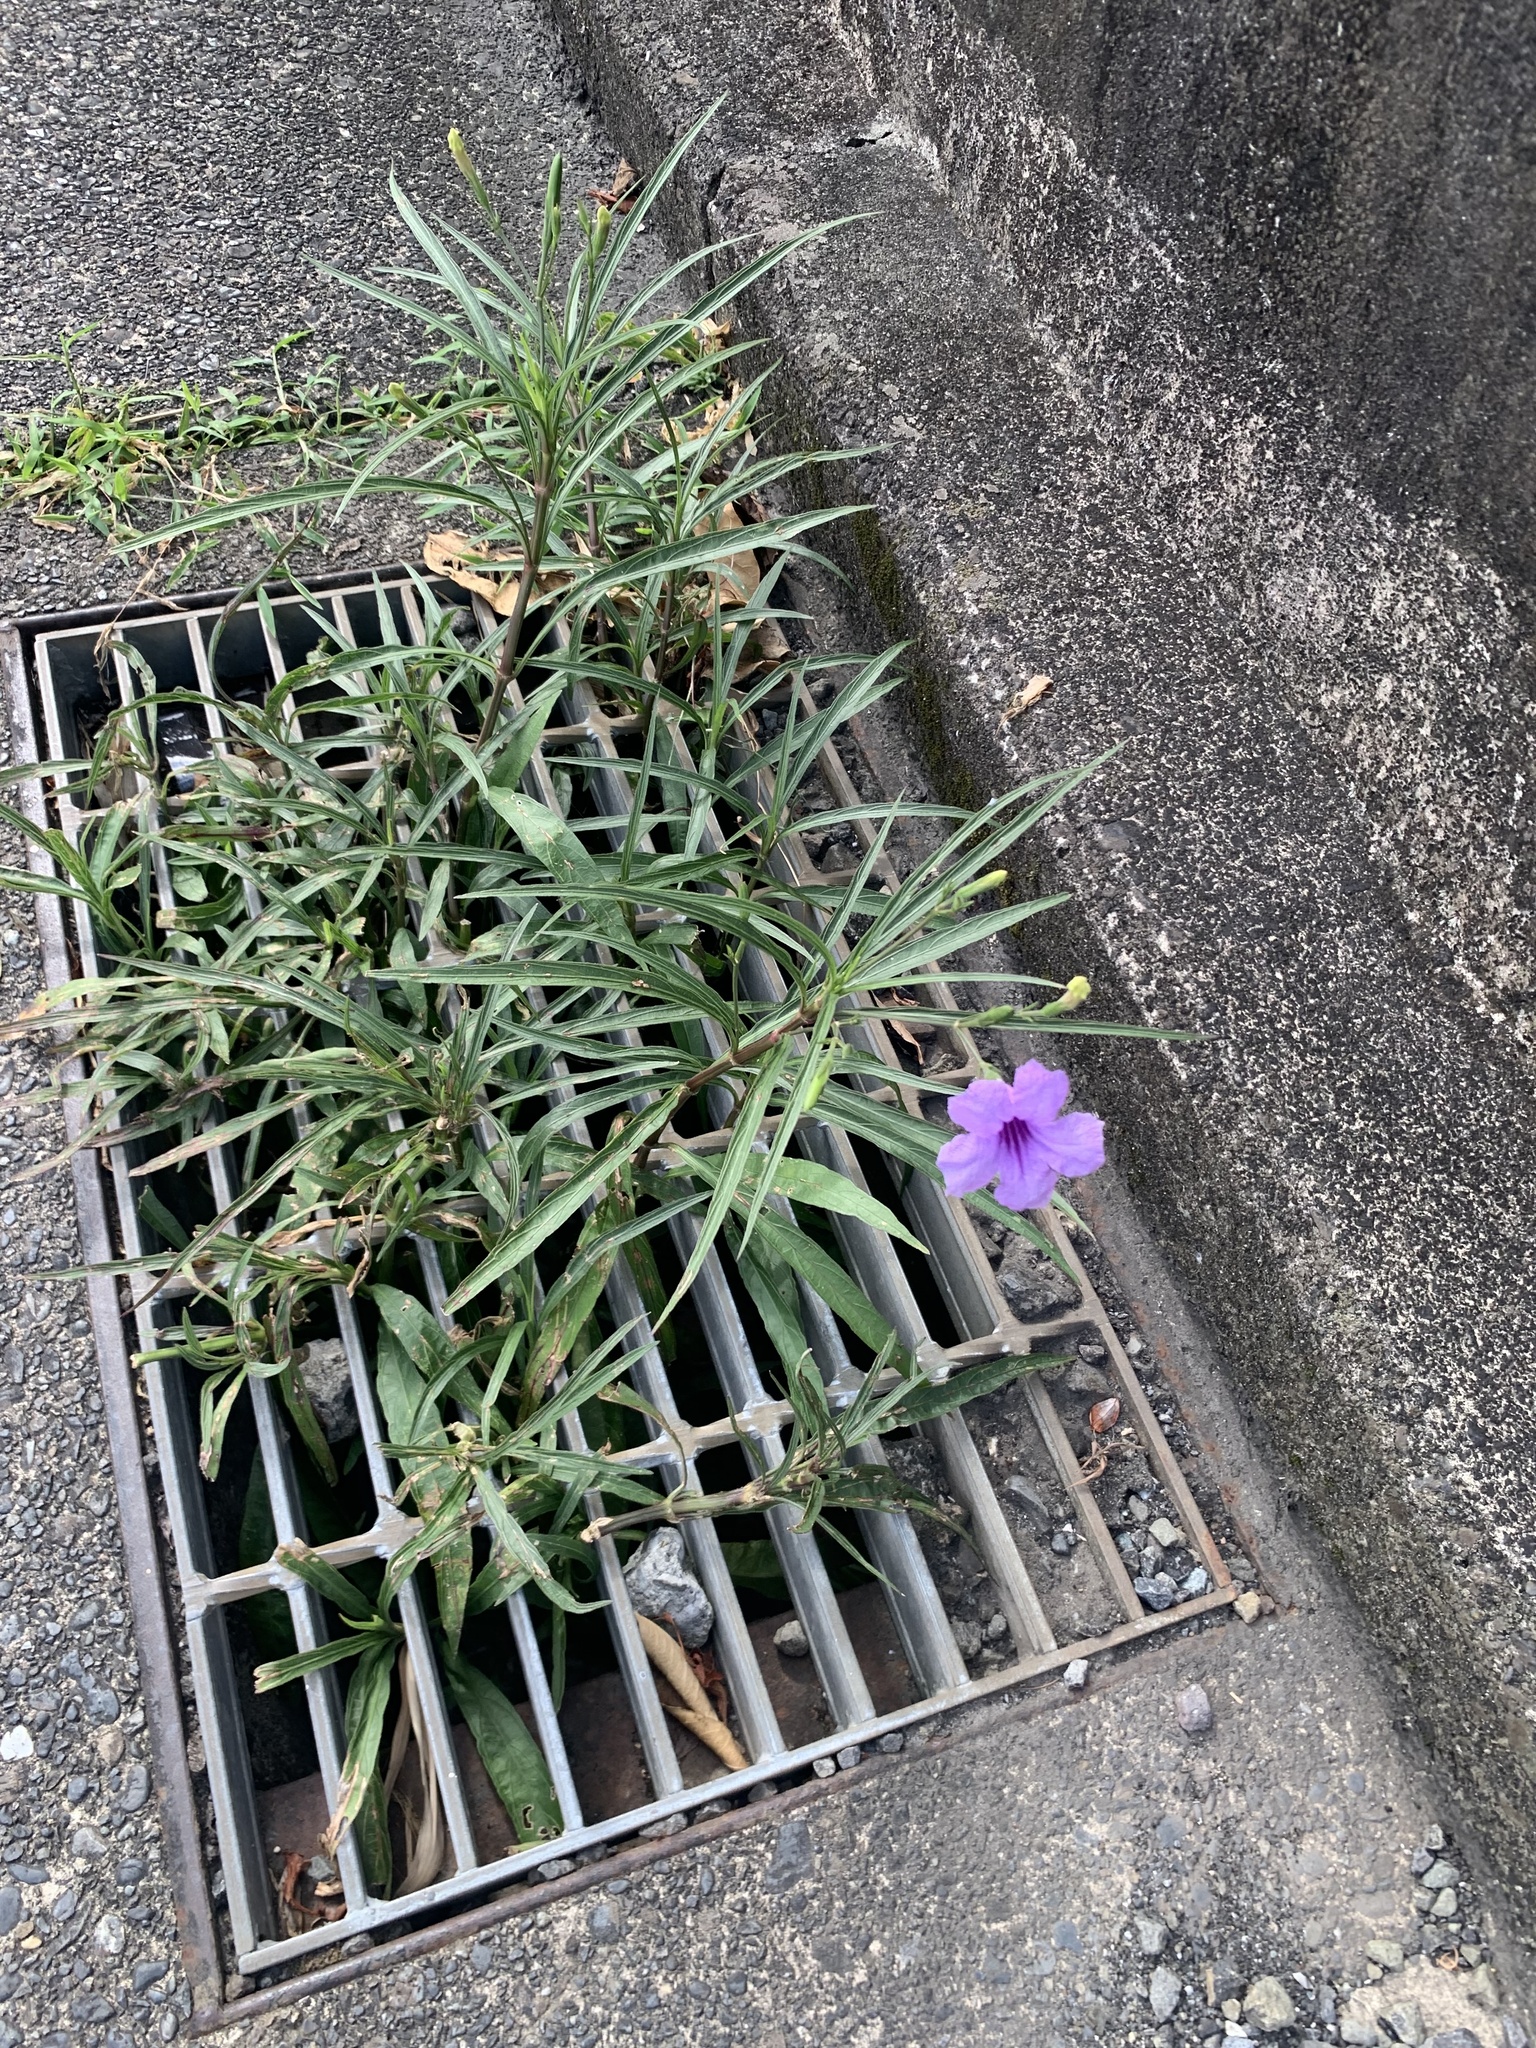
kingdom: Plantae
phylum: Tracheophyta
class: Magnoliopsida
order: Lamiales
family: Acanthaceae
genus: Ruellia
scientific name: Ruellia simplex
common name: Softseed wild petunia
